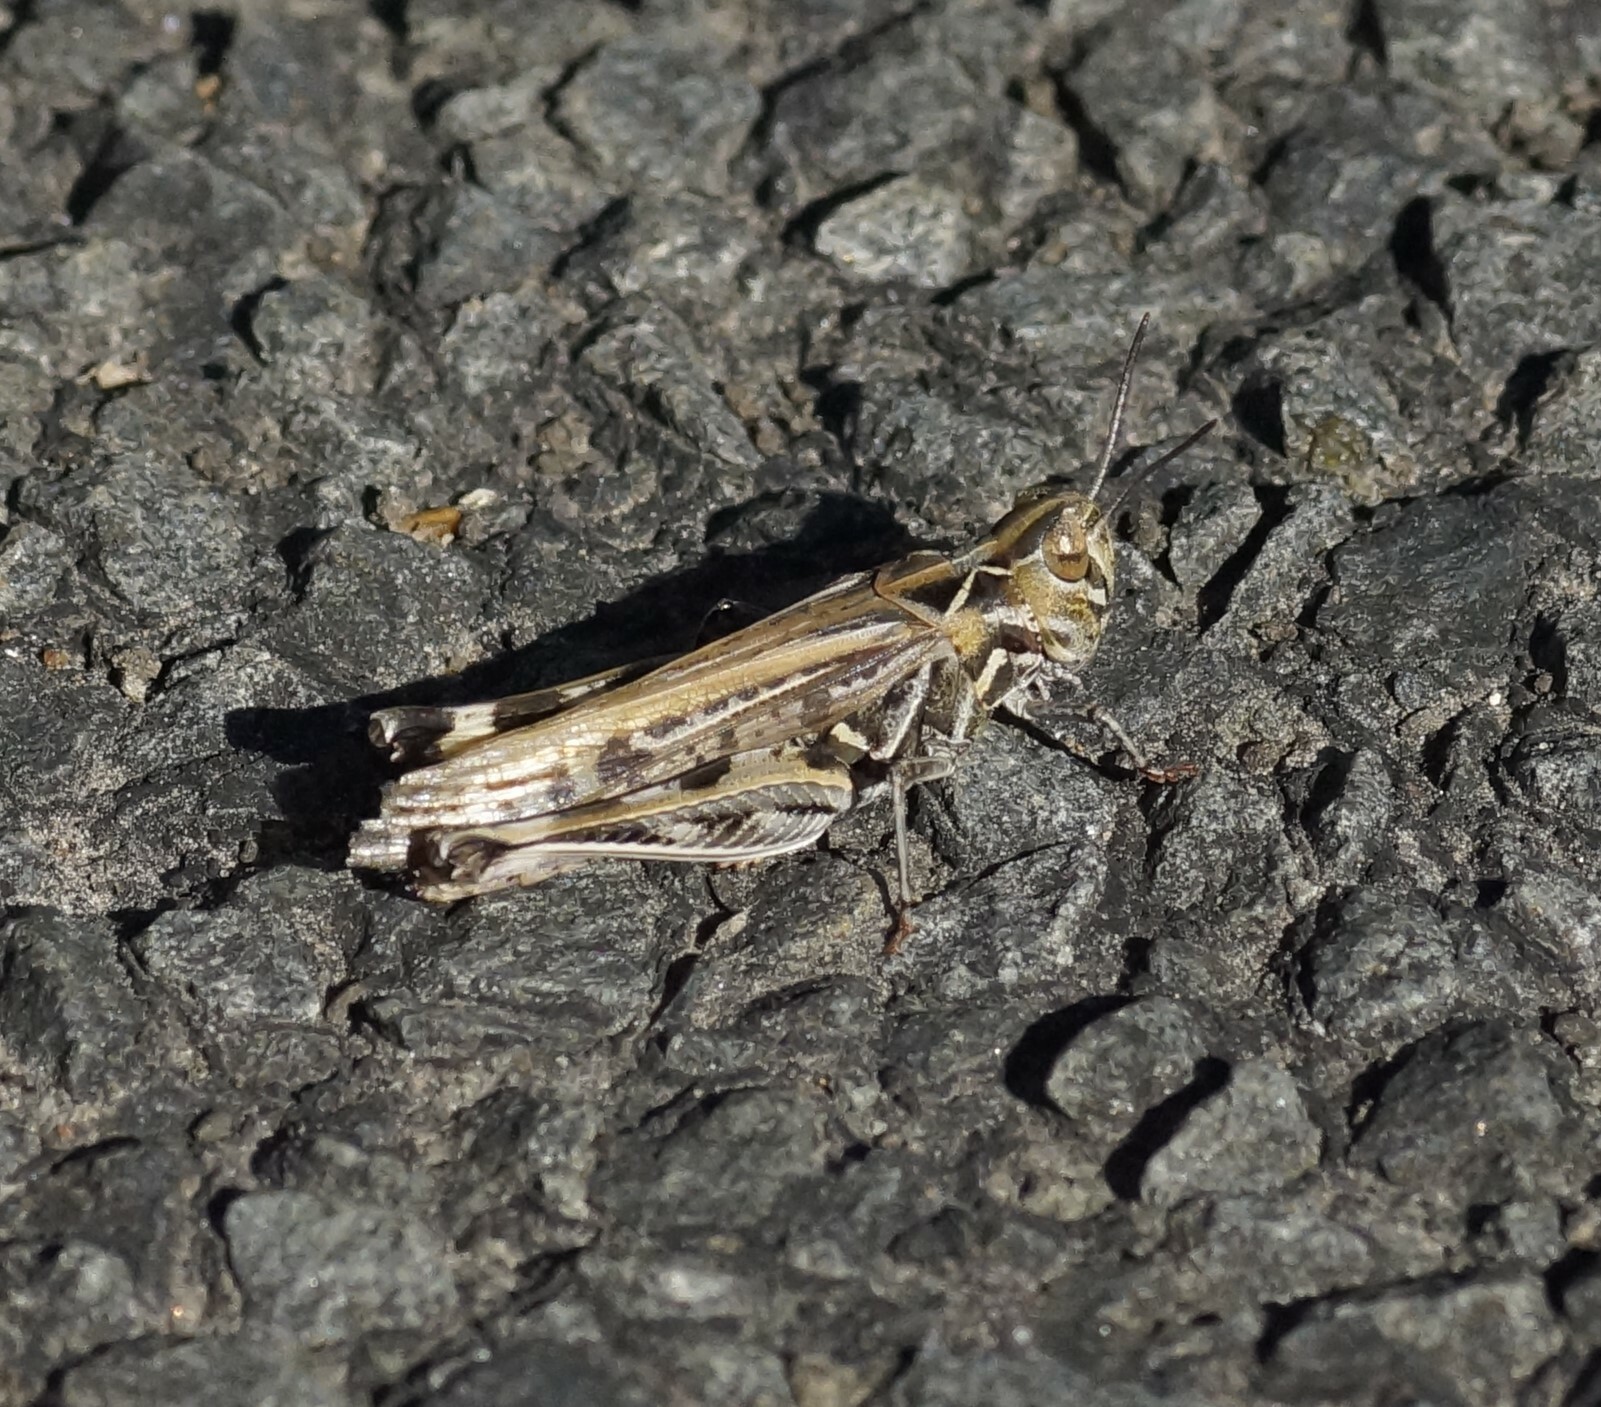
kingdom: Animalia
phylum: Arthropoda
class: Insecta
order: Orthoptera
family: Acrididae
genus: Austroicetes
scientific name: Austroicetes vulgaris
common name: Southeastern austroicetes
